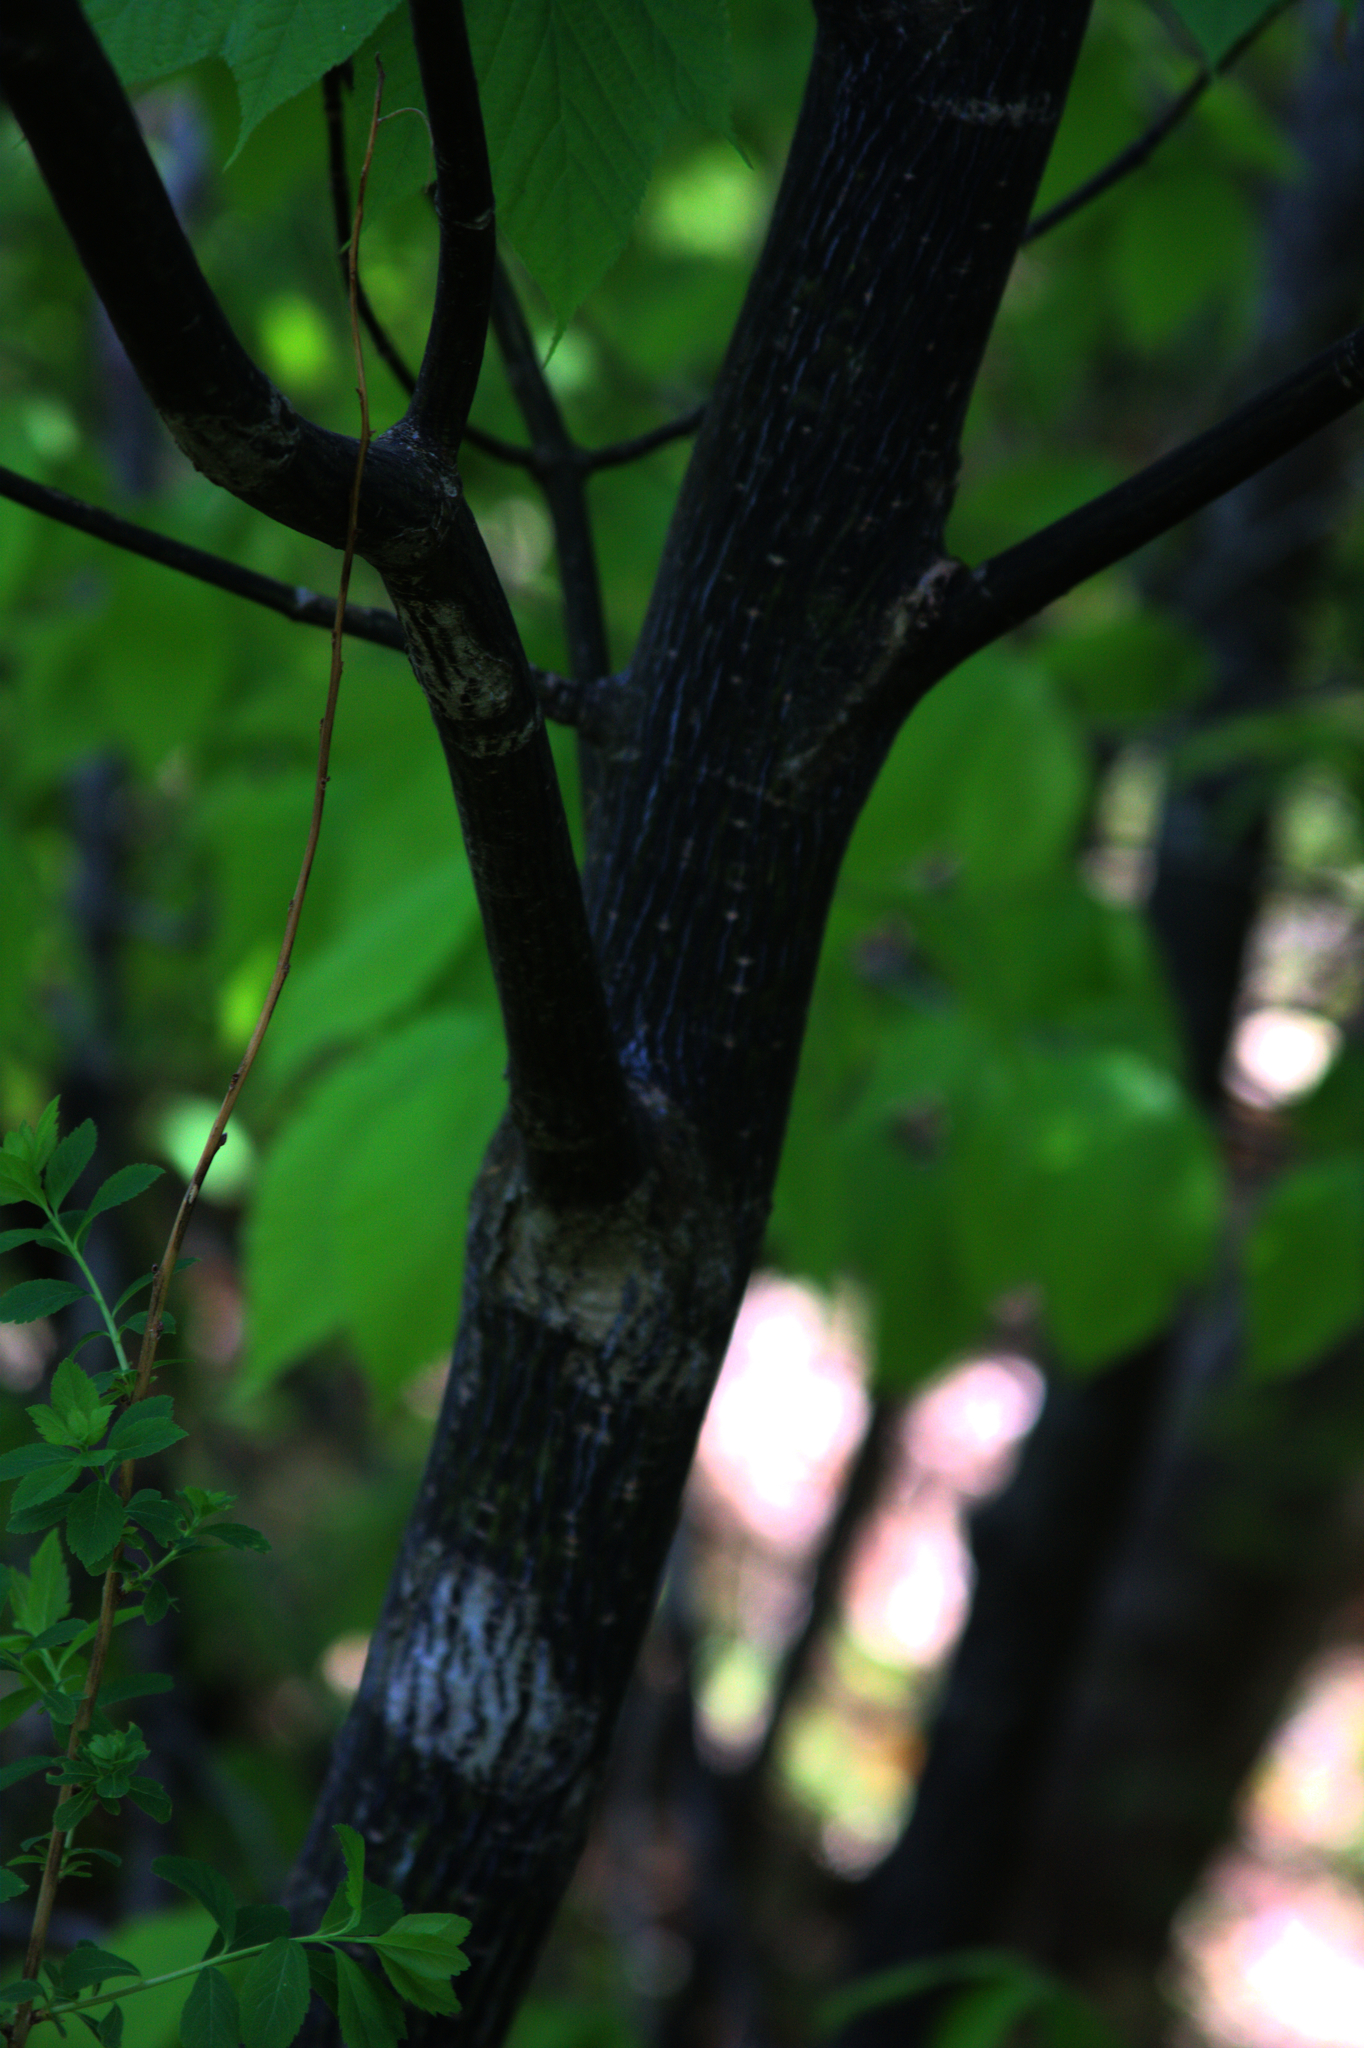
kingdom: Plantae
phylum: Tracheophyta
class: Magnoliopsida
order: Sapindales
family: Sapindaceae
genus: Acer
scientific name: Acer pensylvanicum
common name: Moosewood
